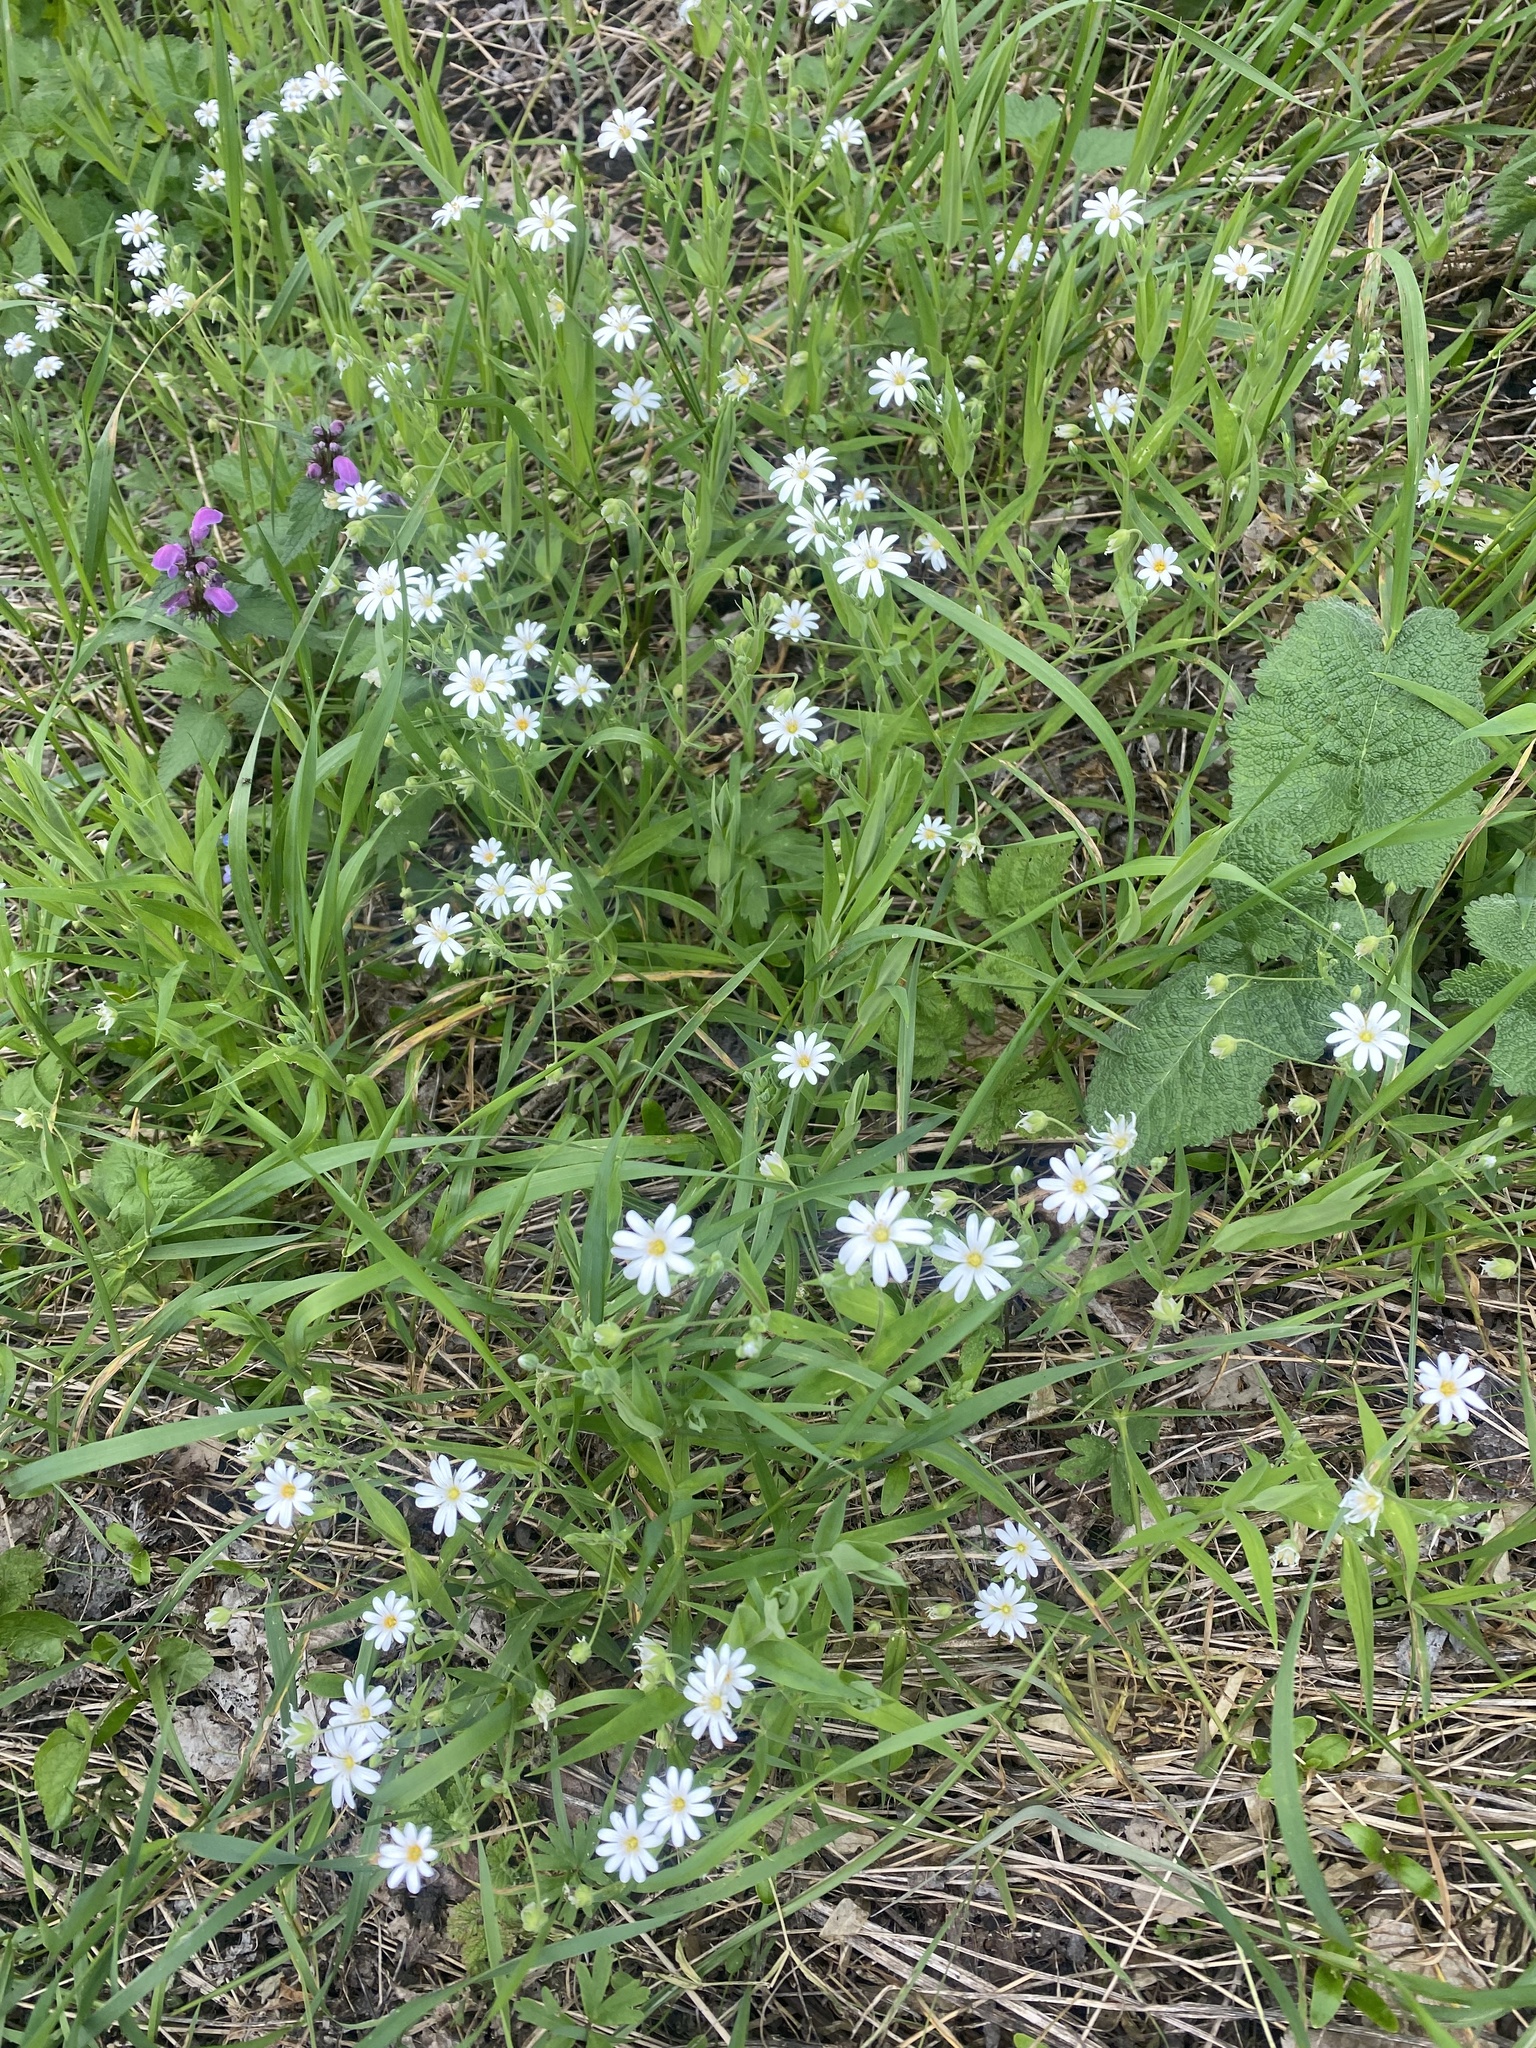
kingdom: Plantae
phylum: Tracheophyta
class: Magnoliopsida
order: Caryophyllales
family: Caryophyllaceae
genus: Rabelera
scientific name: Rabelera holostea
